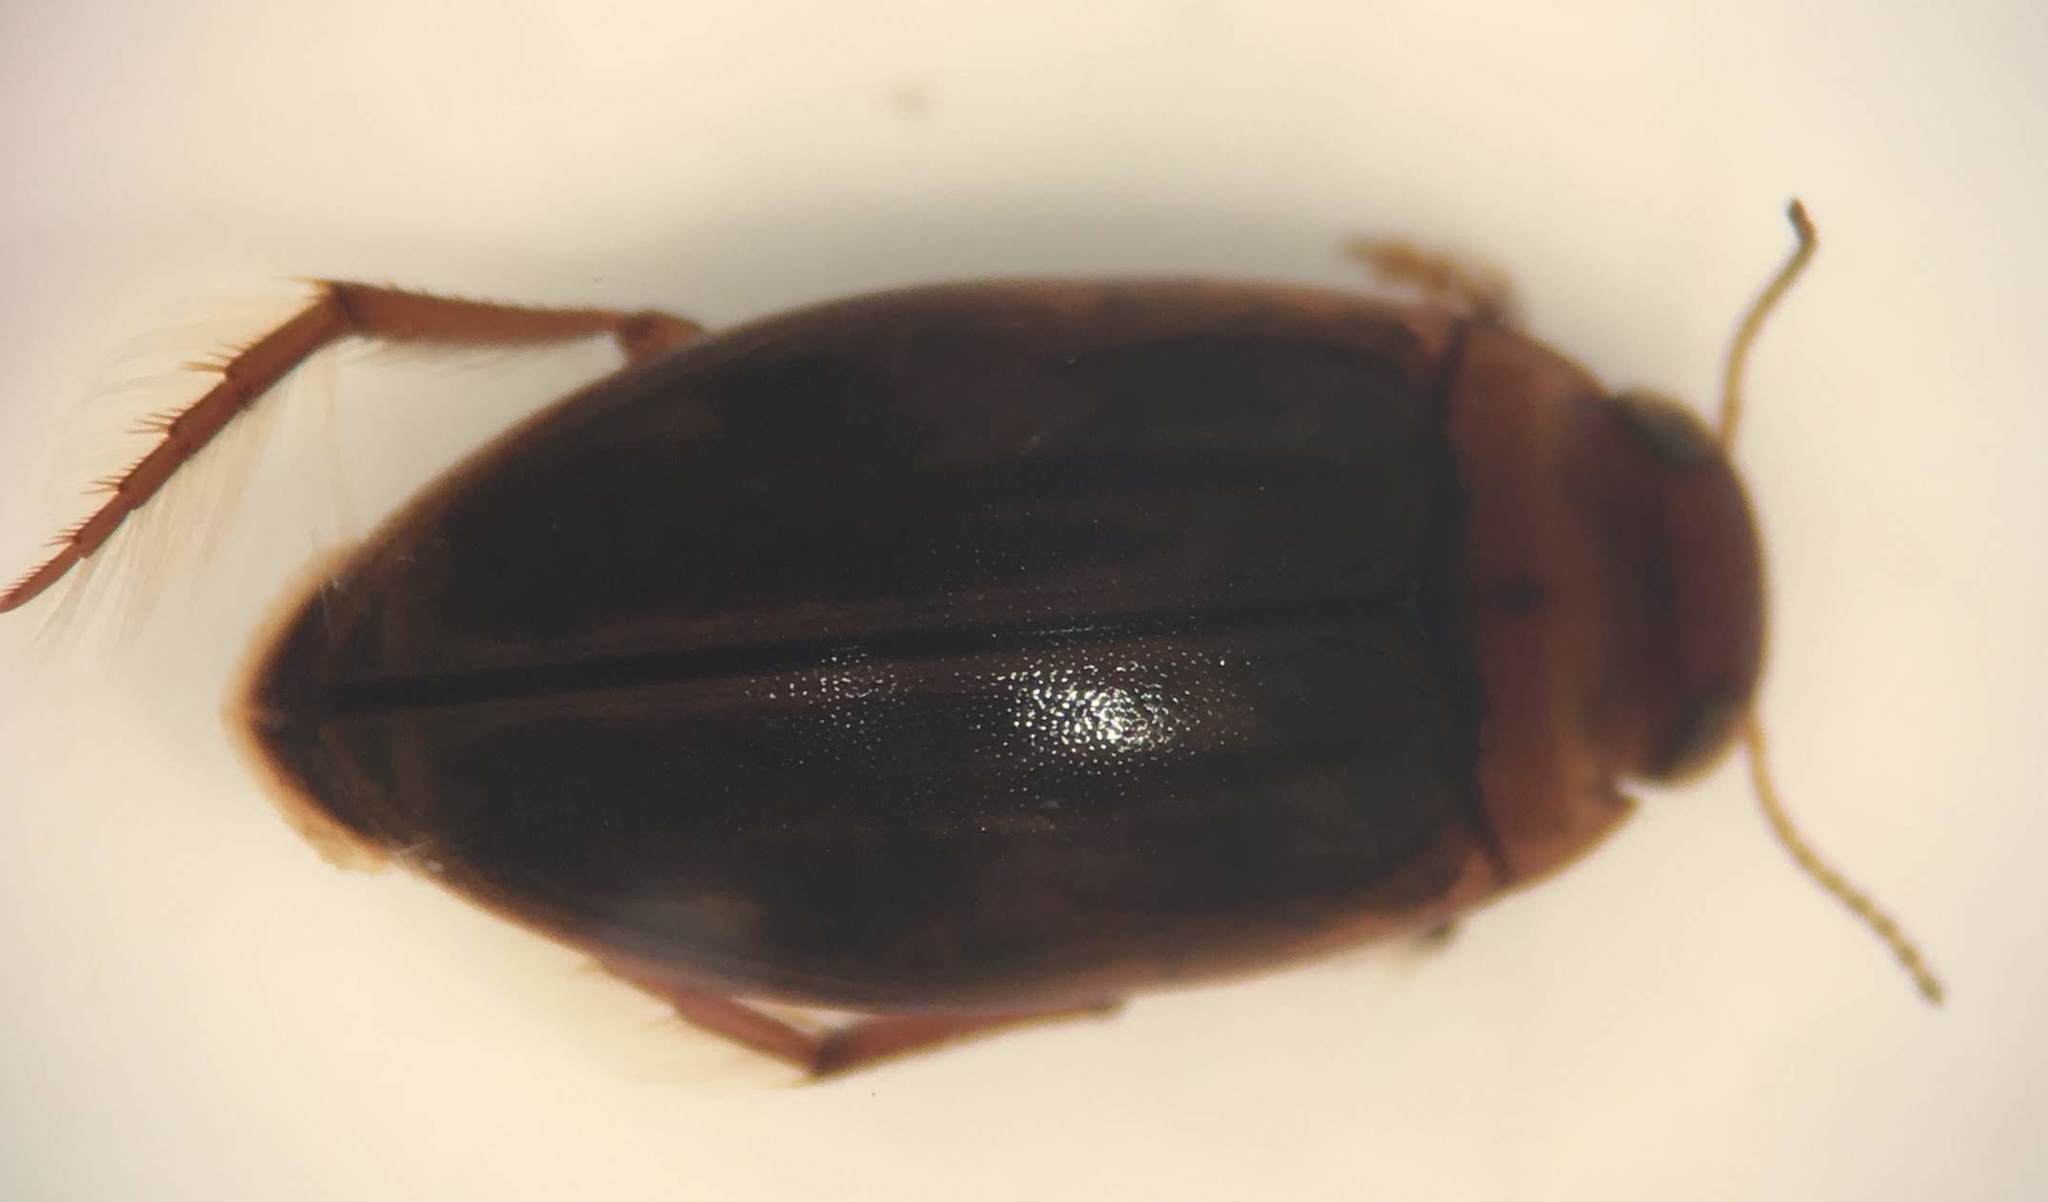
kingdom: Animalia
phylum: Arthropoda
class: Insecta
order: Coleoptera
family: Dytiscidae
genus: Hygrotus
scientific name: Hygrotus nubilus
